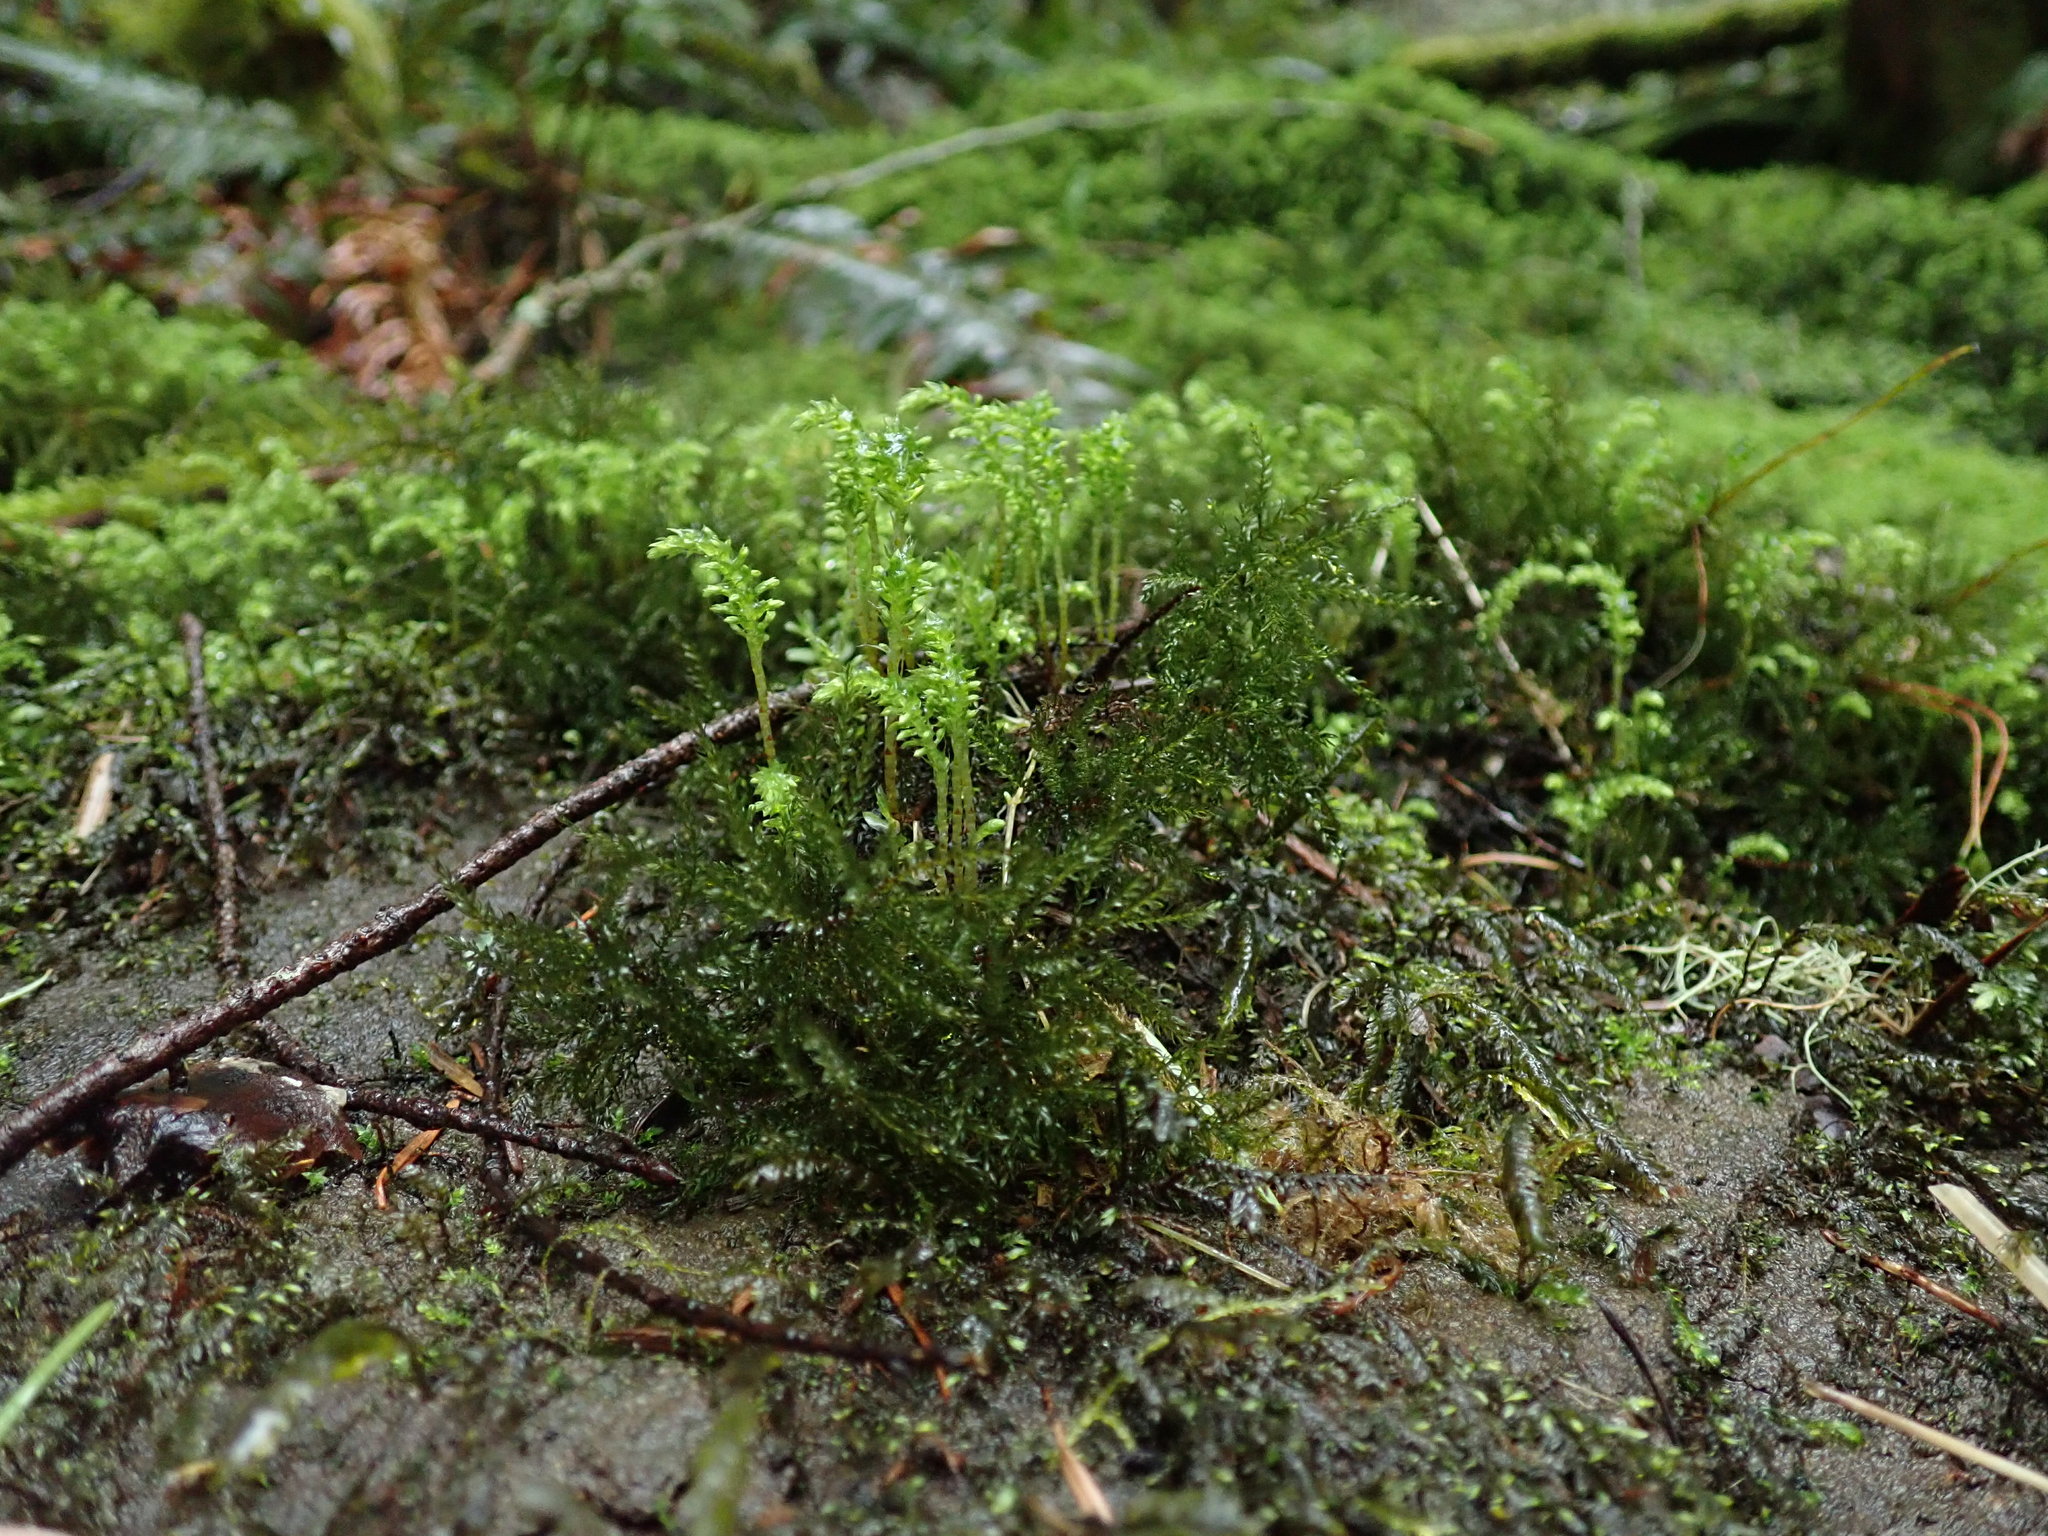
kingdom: Plantae
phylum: Bryophyta
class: Bryopsida
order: Bryales
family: Mniaceae
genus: Leucolepis
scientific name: Leucolepis acanthoneura
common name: Leucolepis umbrella moss
